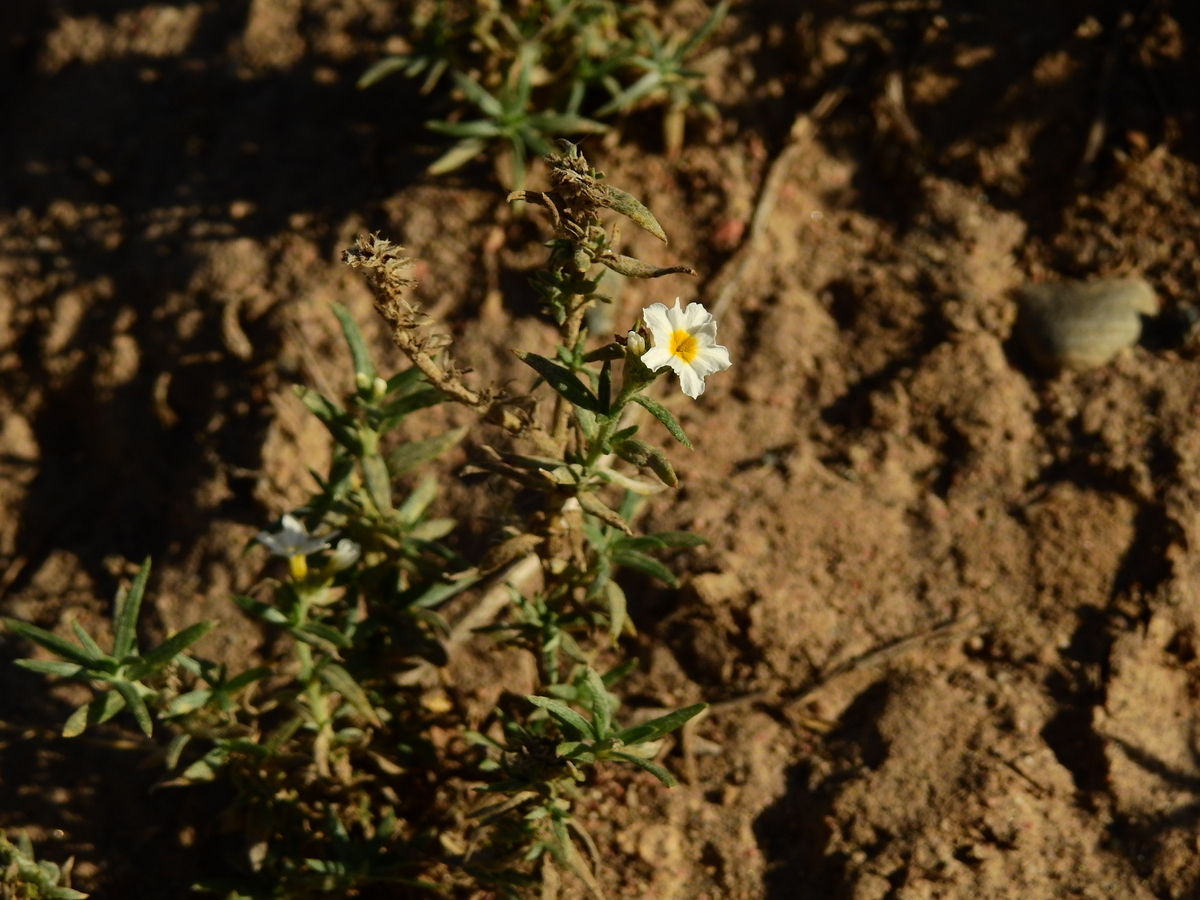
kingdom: Plantae
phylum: Tracheophyta
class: Magnoliopsida
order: Boraginales
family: Heliotropiaceae
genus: Euploca
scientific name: Euploca mendocina
